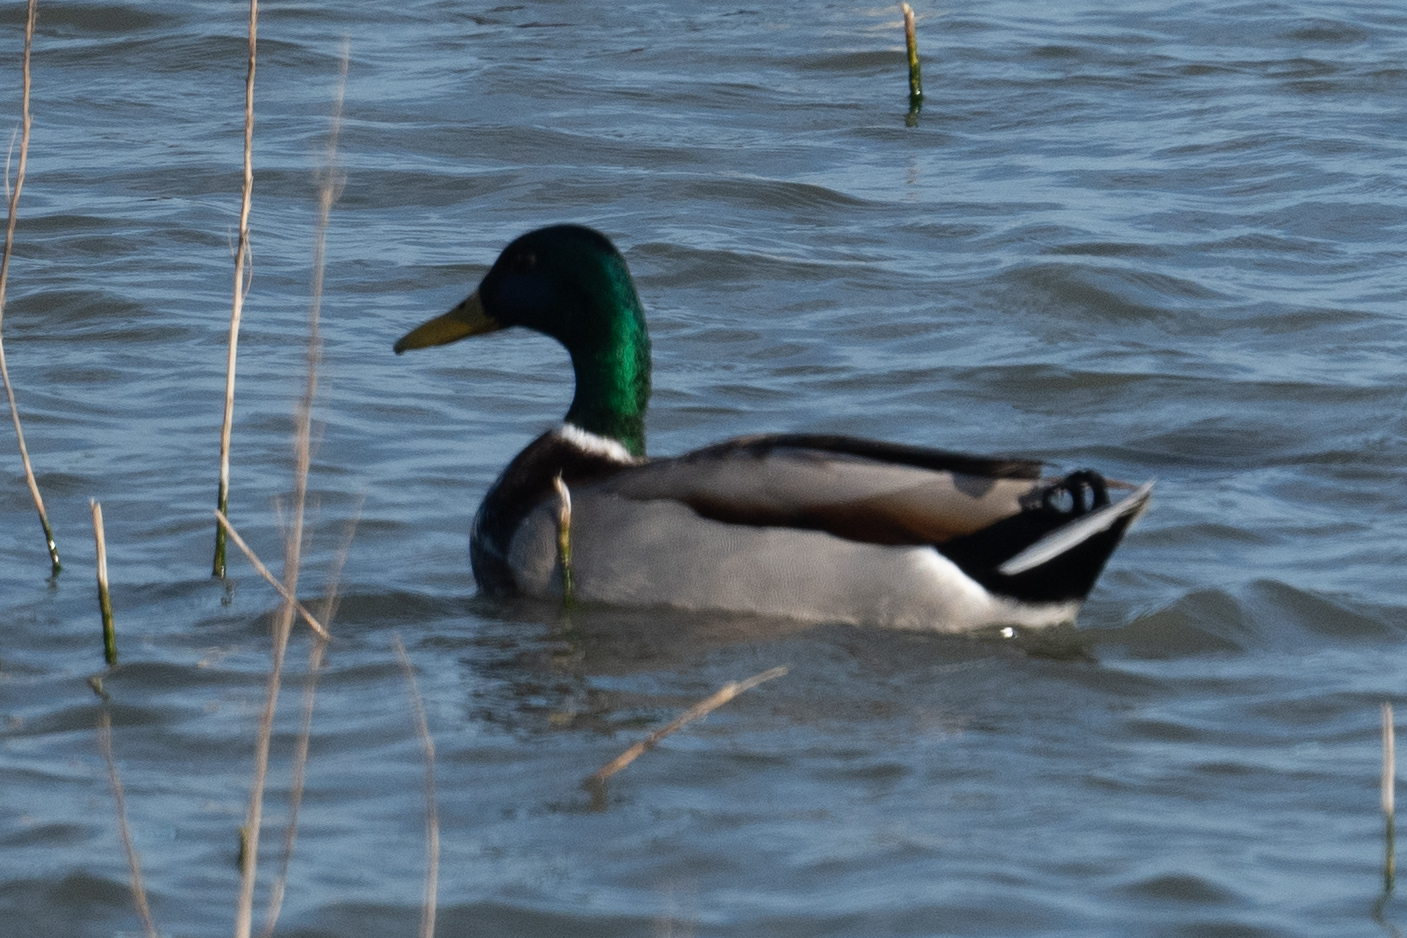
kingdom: Animalia
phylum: Chordata
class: Aves
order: Anseriformes
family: Anatidae
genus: Anas
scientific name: Anas platyrhynchos
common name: Mallard
